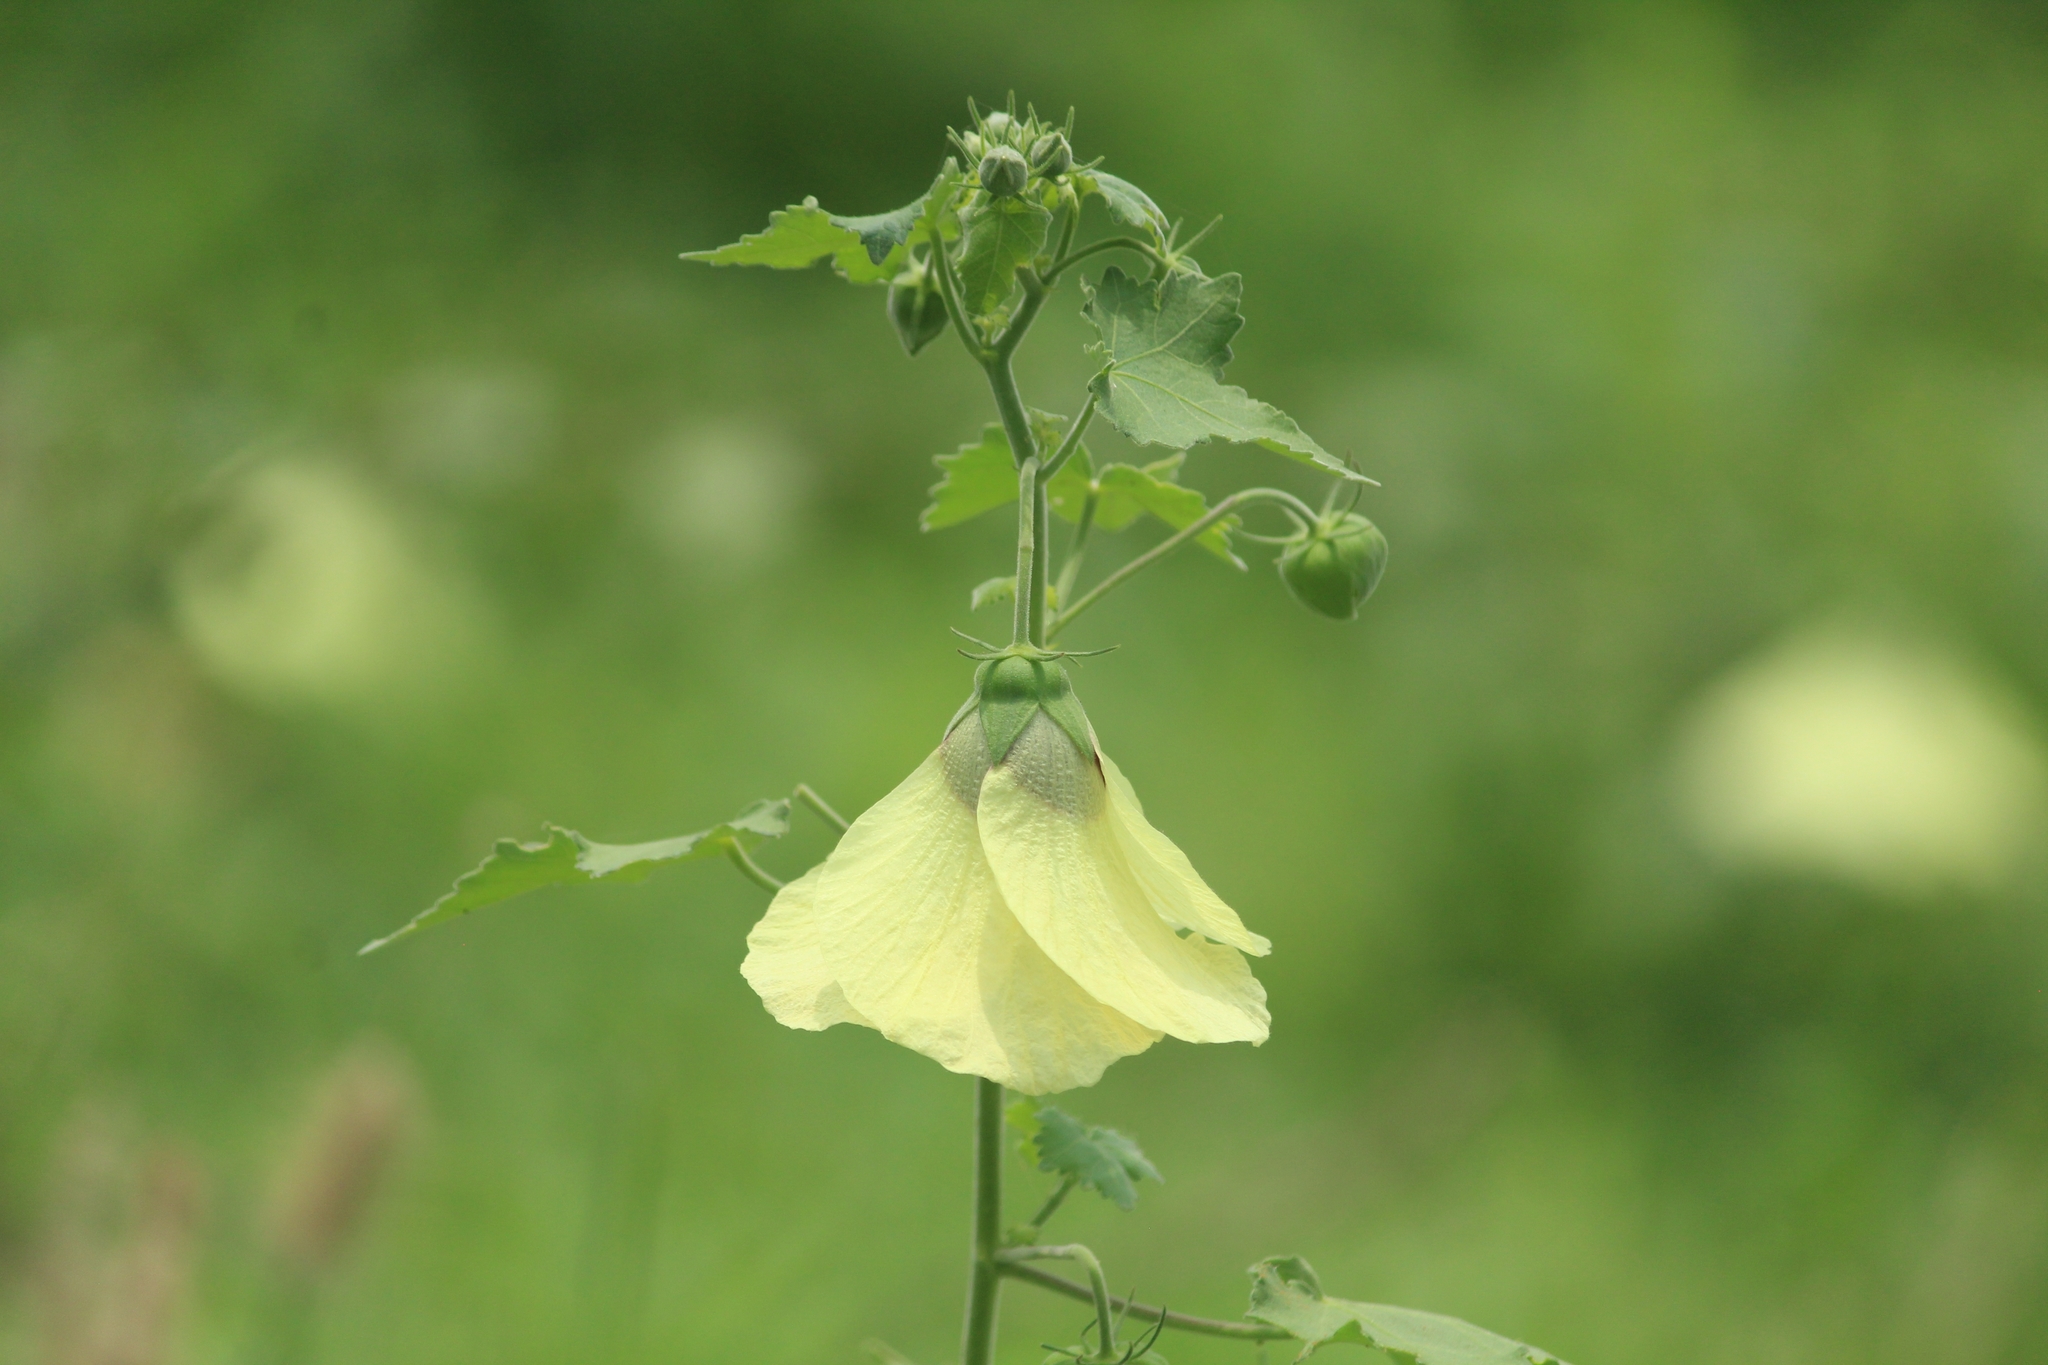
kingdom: Plantae
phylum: Tracheophyta
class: Magnoliopsida
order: Malvales
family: Malvaceae
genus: Hibiscus
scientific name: Hibiscus vitifolius
